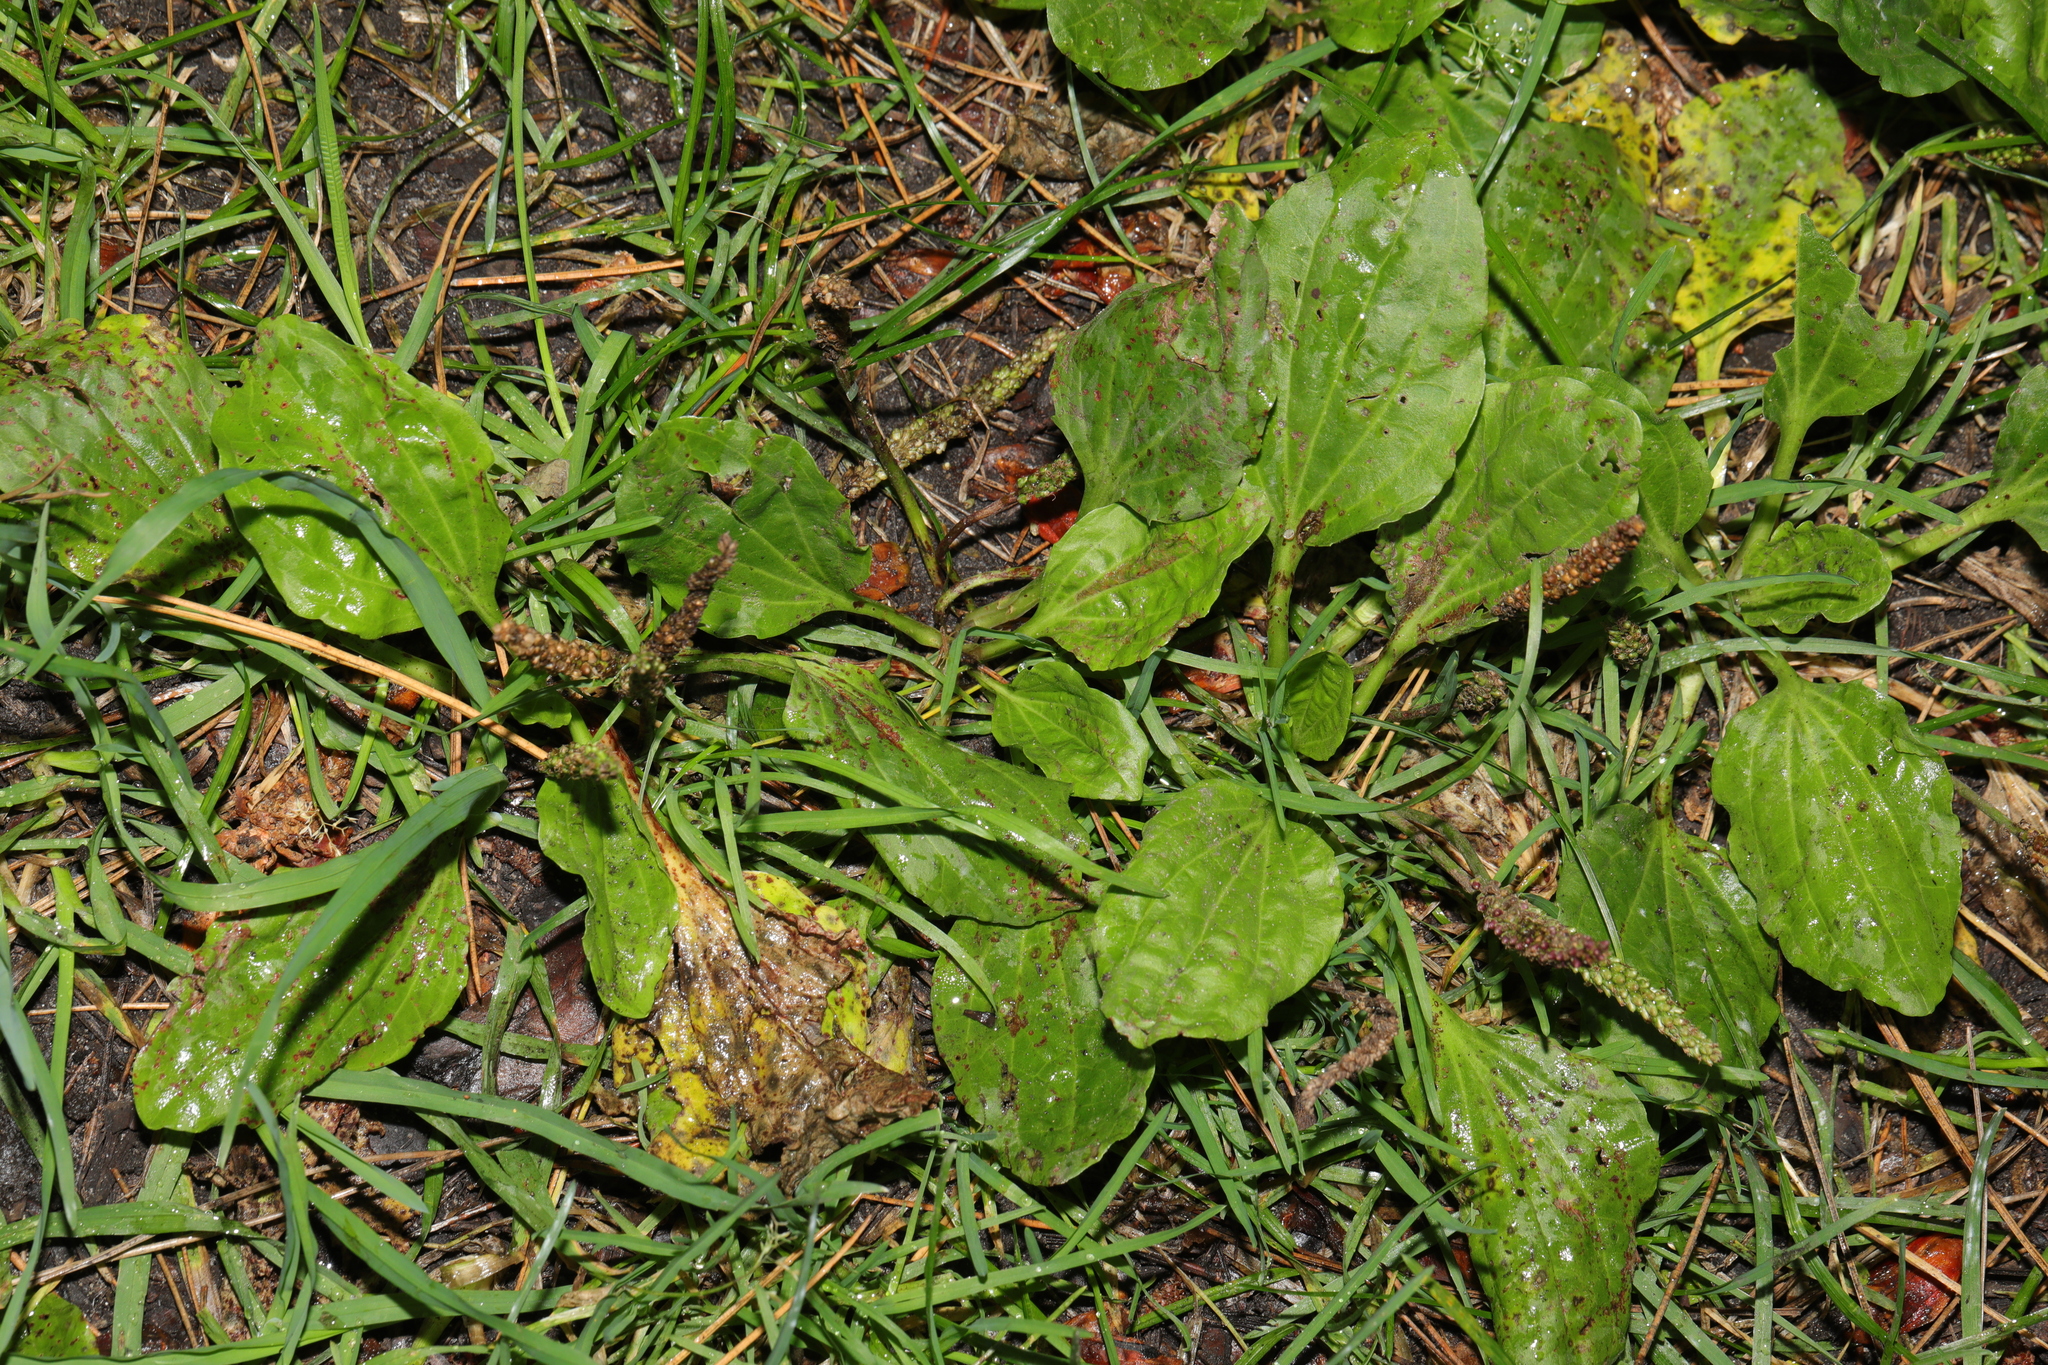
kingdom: Plantae
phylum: Tracheophyta
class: Magnoliopsida
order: Lamiales
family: Plantaginaceae
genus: Plantago
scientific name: Plantago major
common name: Common plantain
